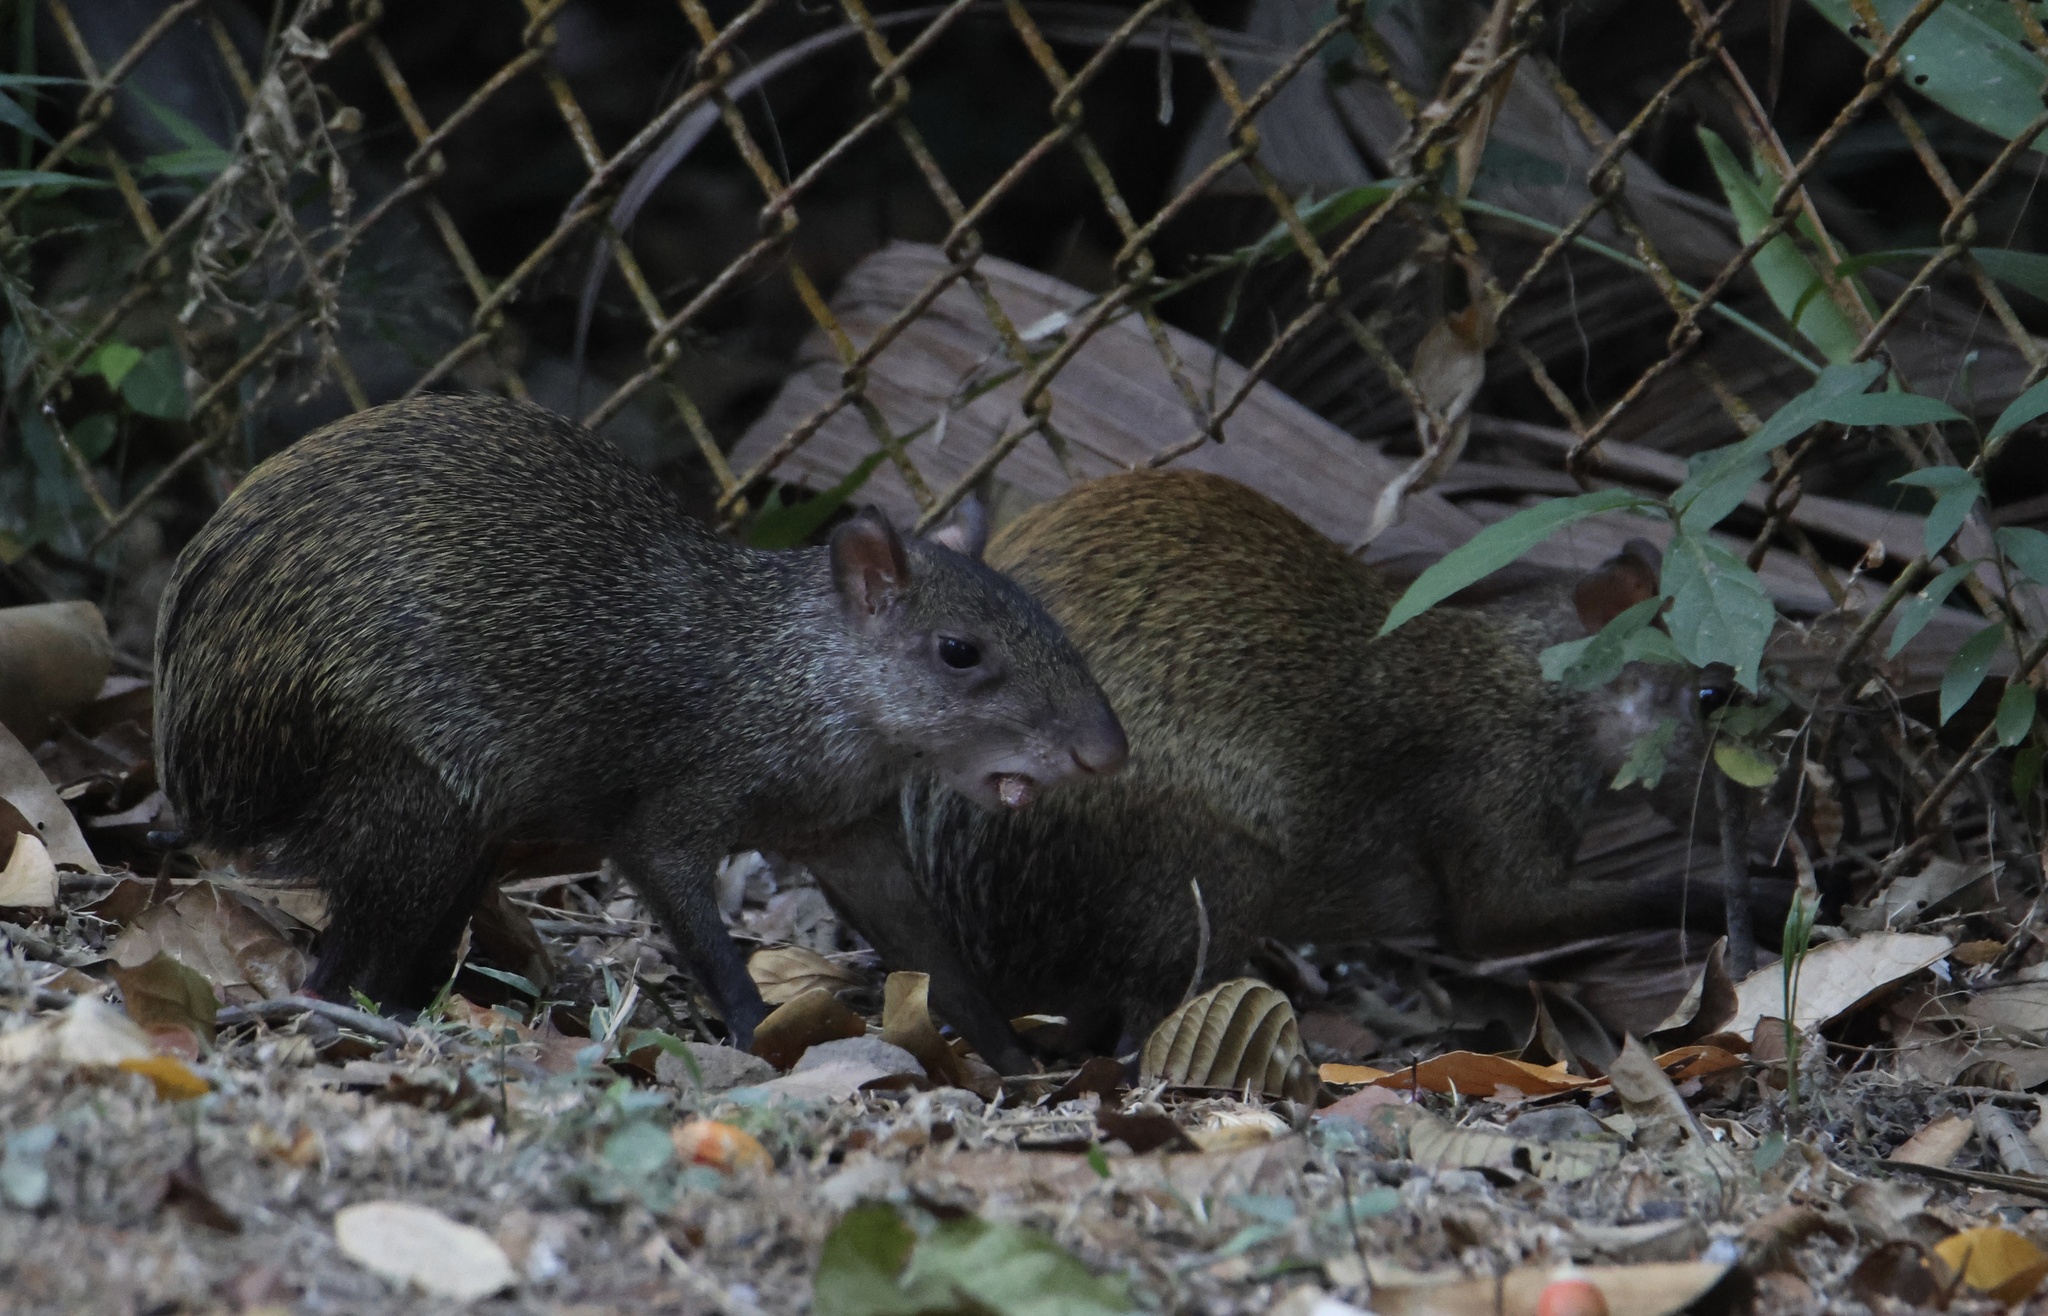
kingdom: Animalia
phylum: Chordata
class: Mammalia
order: Rodentia
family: Dasyproctidae
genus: Dasyprocta
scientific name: Dasyprocta punctata
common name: Central american agouti
